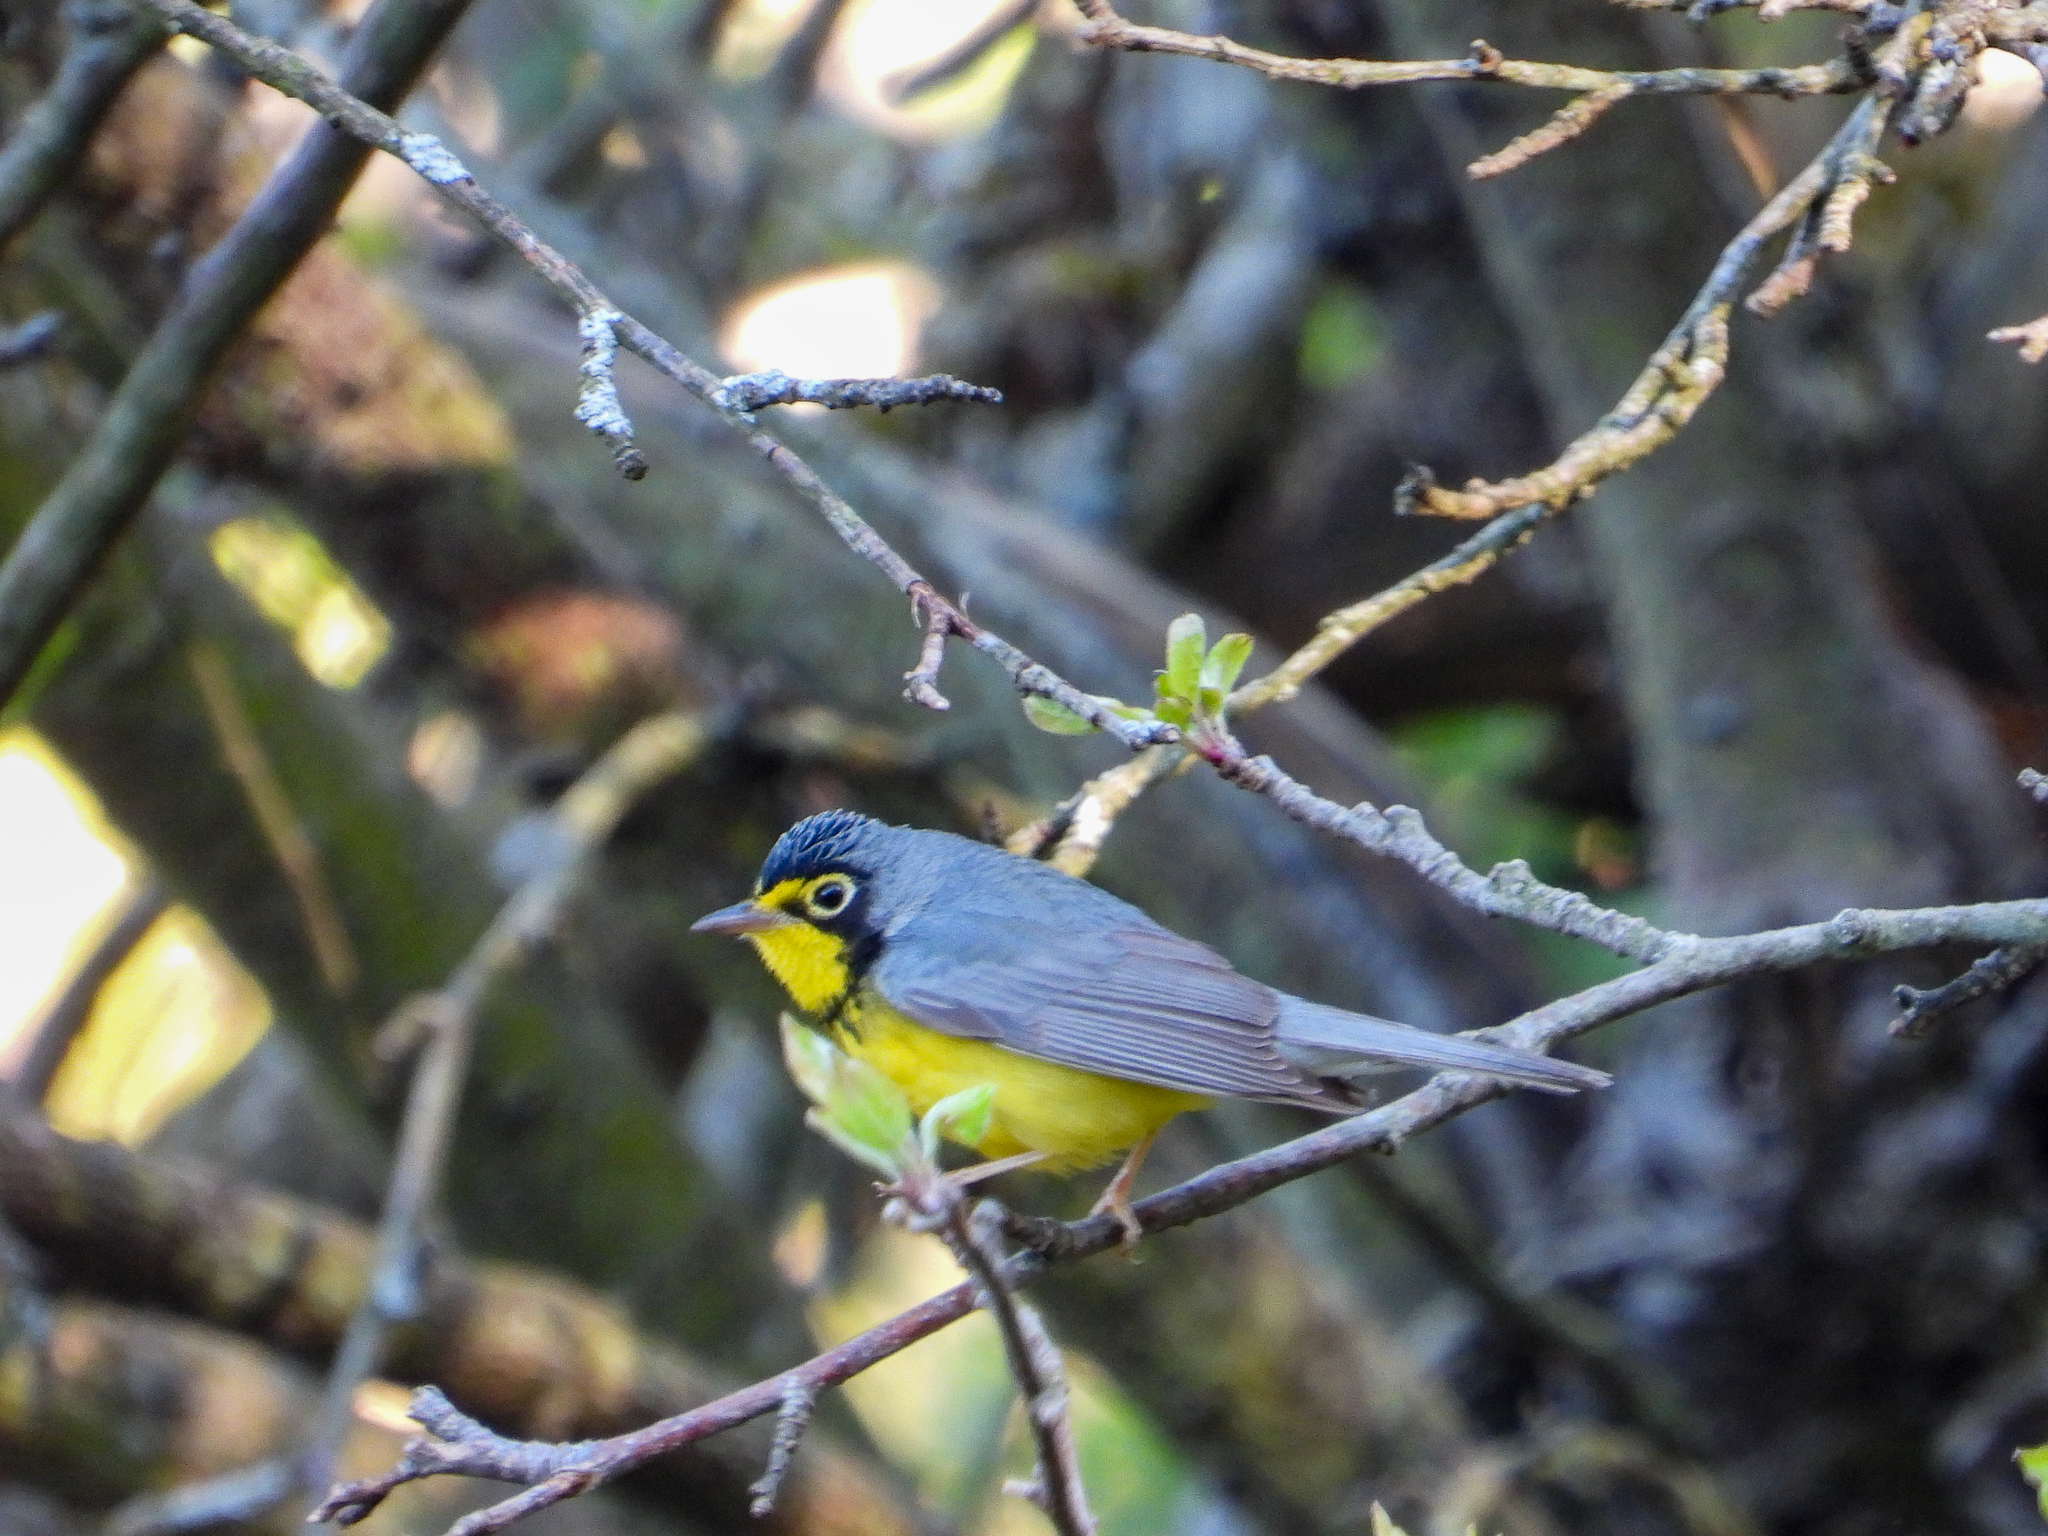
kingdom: Animalia
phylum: Chordata
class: Aves
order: Passeriformes
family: Parulidae
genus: Cardellina
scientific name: Cardellina canadensis
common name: Canada warbler
